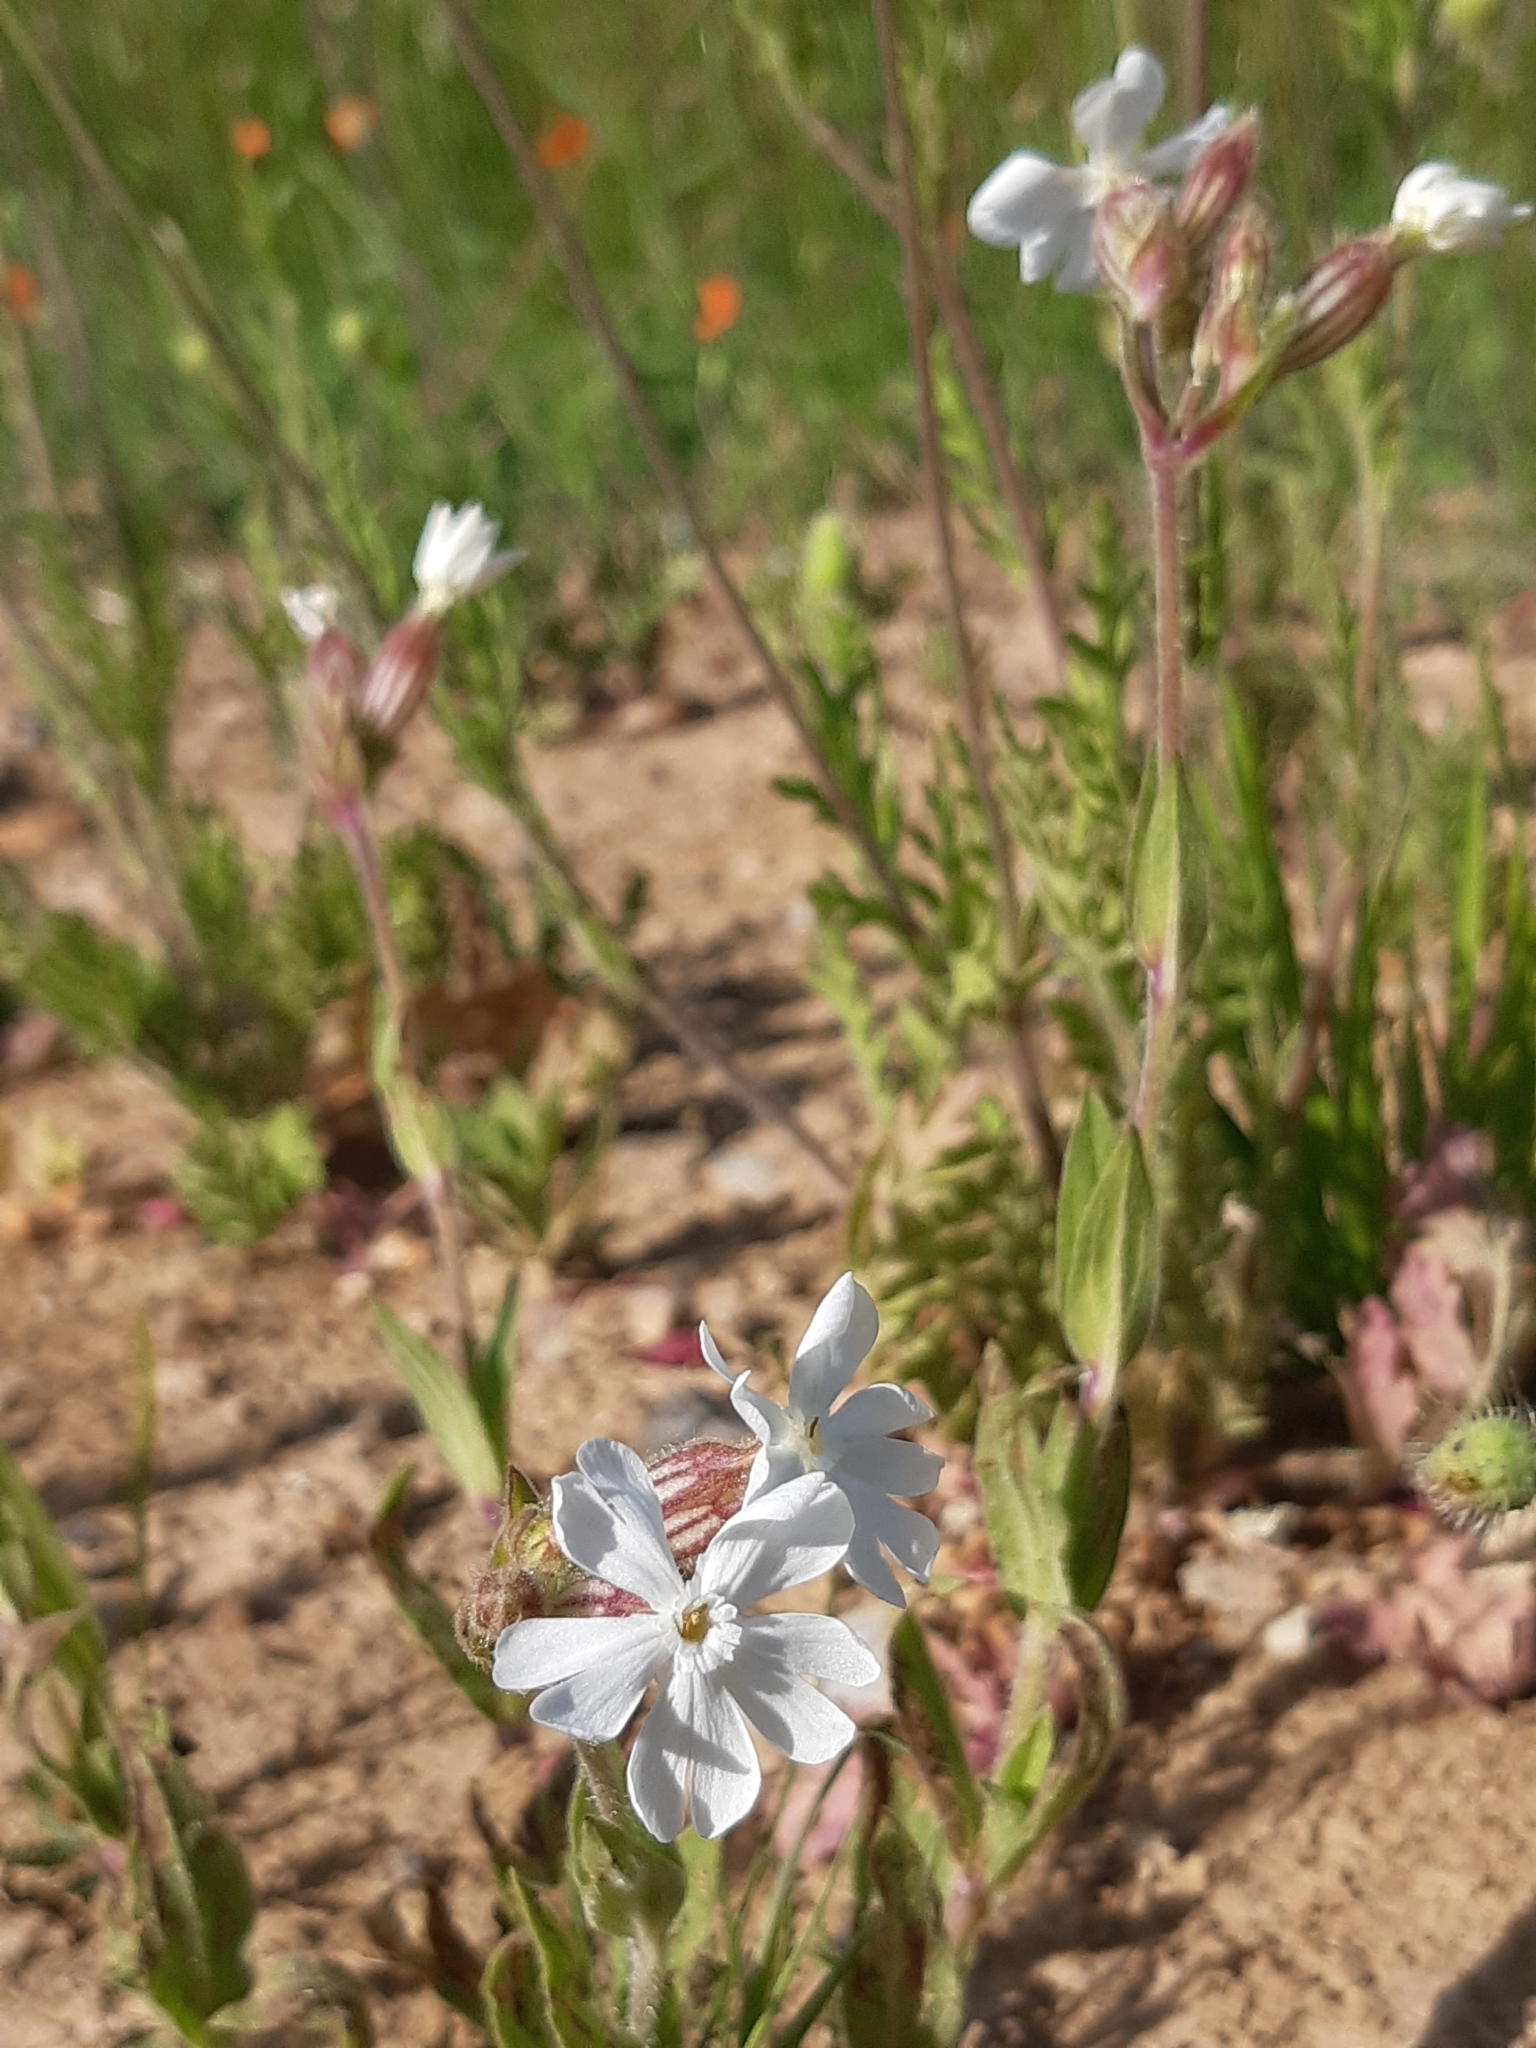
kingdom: Plantae
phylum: Tracheophyta
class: Magnoliopsida
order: Caryophyllales
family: Caryophyllaceae
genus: Silene
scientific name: Silene latifolia
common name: White campion
